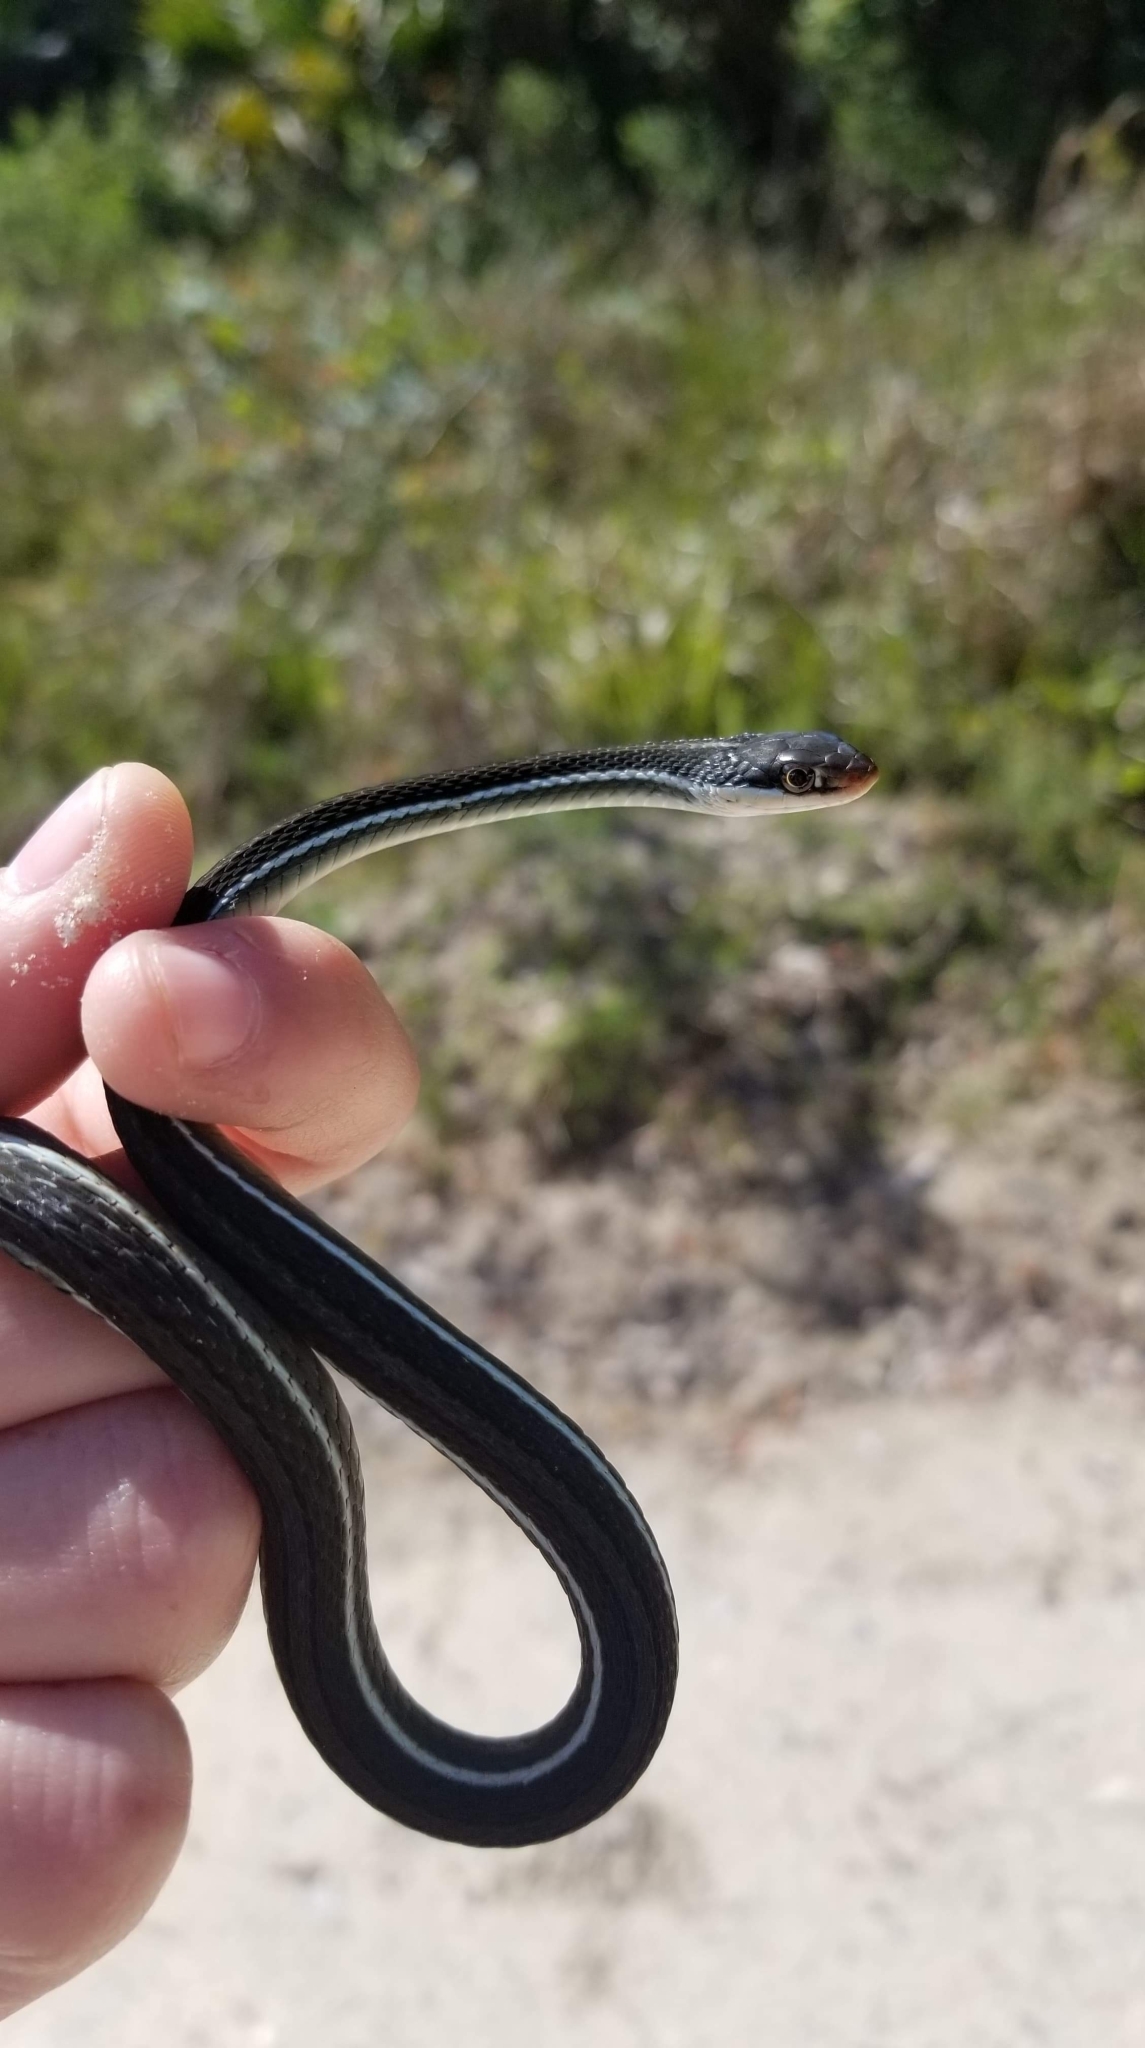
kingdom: Animalia
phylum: Chordata
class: Squamata
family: Colubridae
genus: Thamnophis
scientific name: Thamnophis saurita
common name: Eastern ribbonsnake
